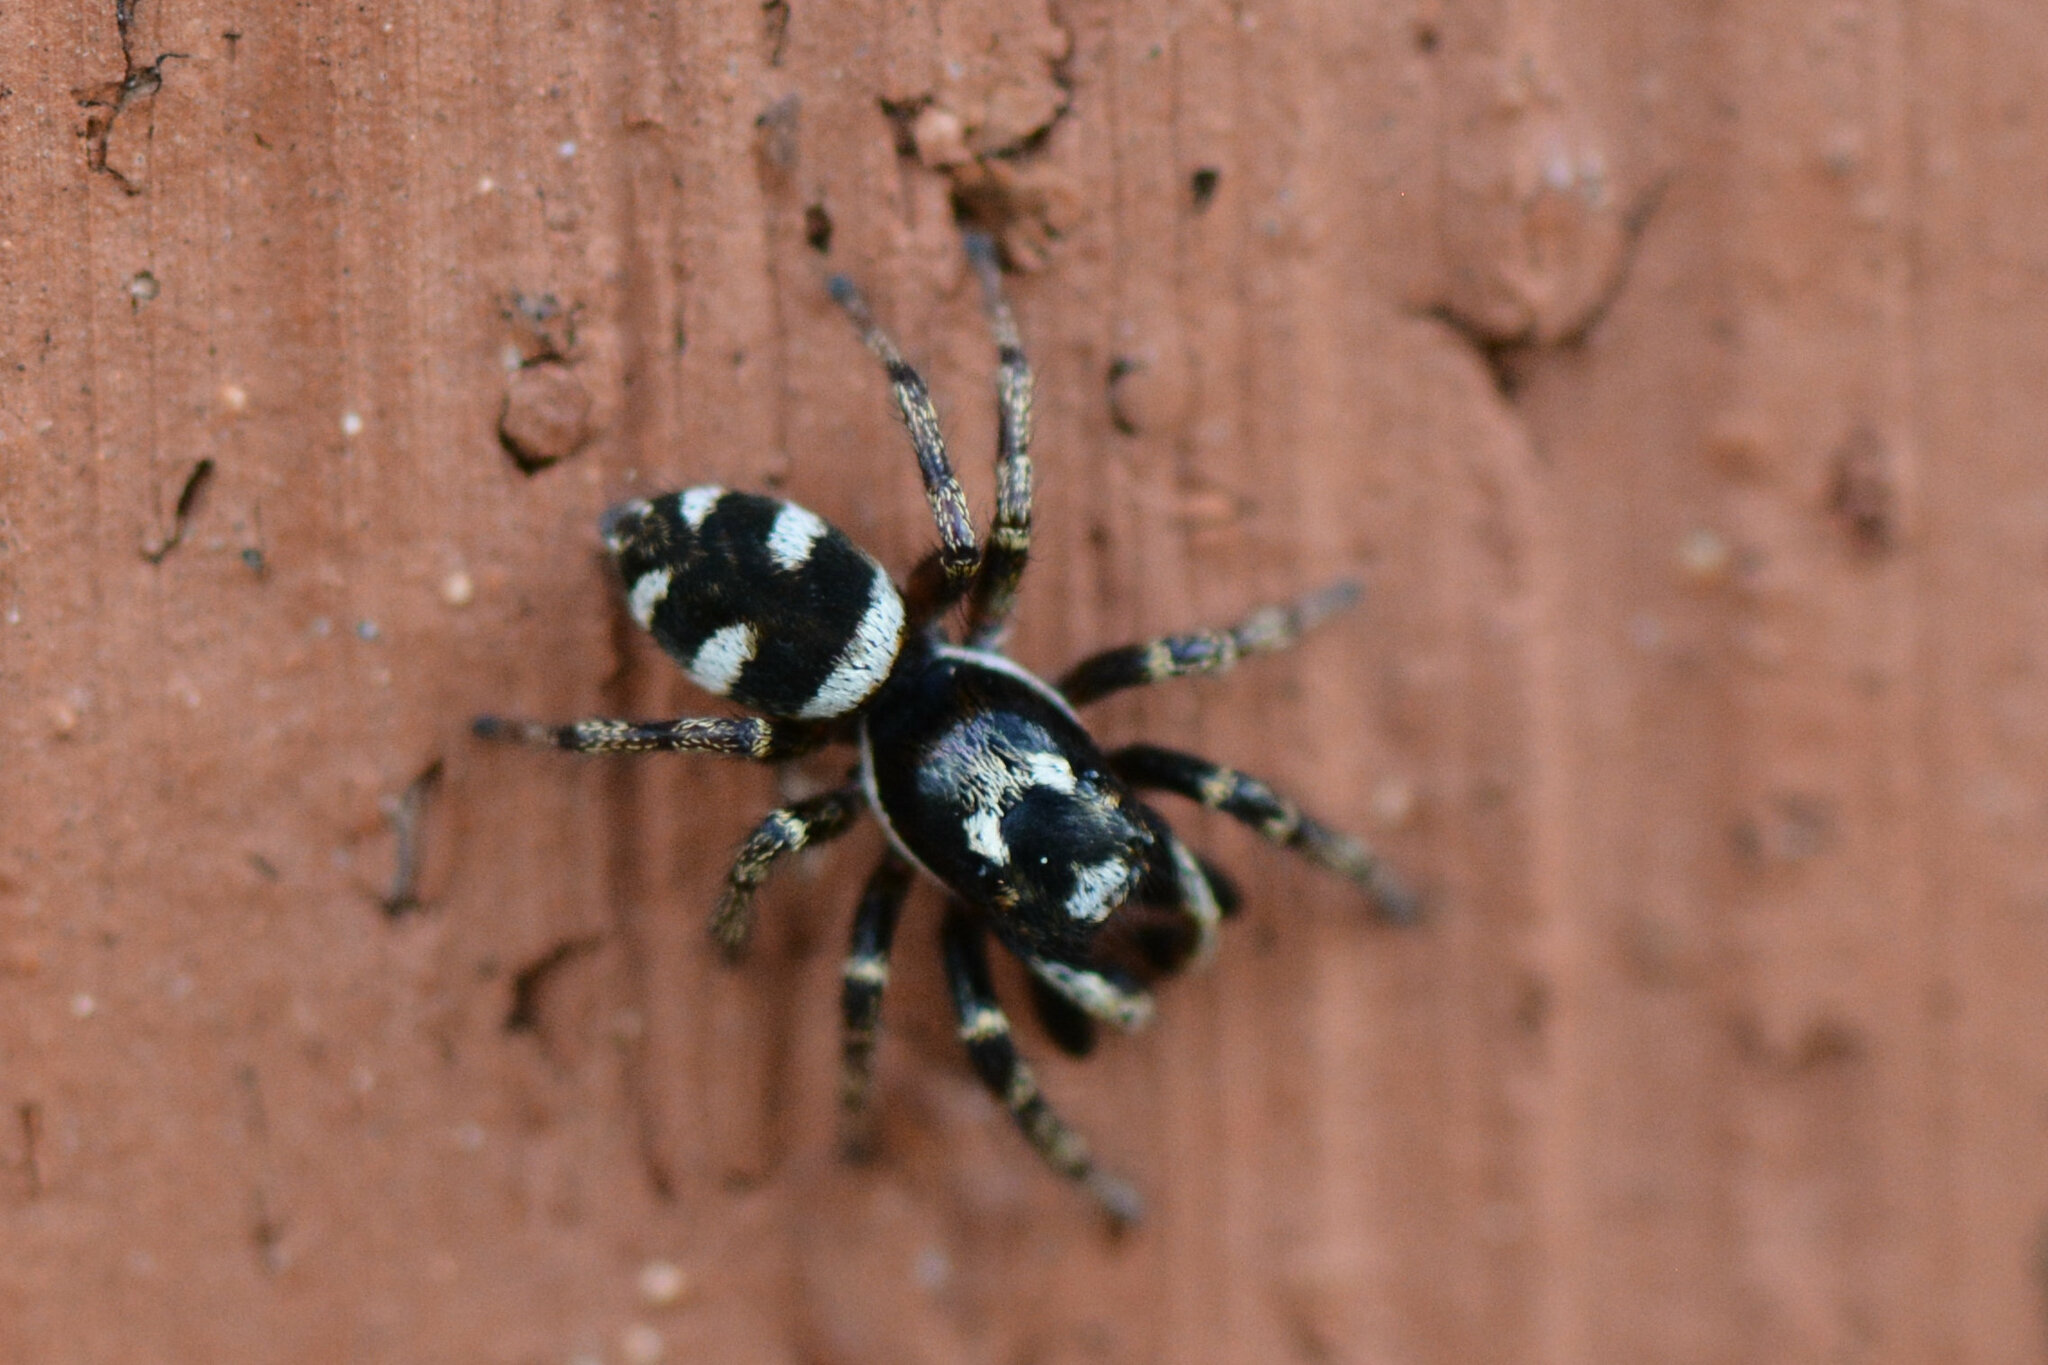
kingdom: Animalia
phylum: Arthropoda
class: Arachnida
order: Araneae
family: Salticidae
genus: Salticus
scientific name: Salticus scenicus
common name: Zebra jumper
